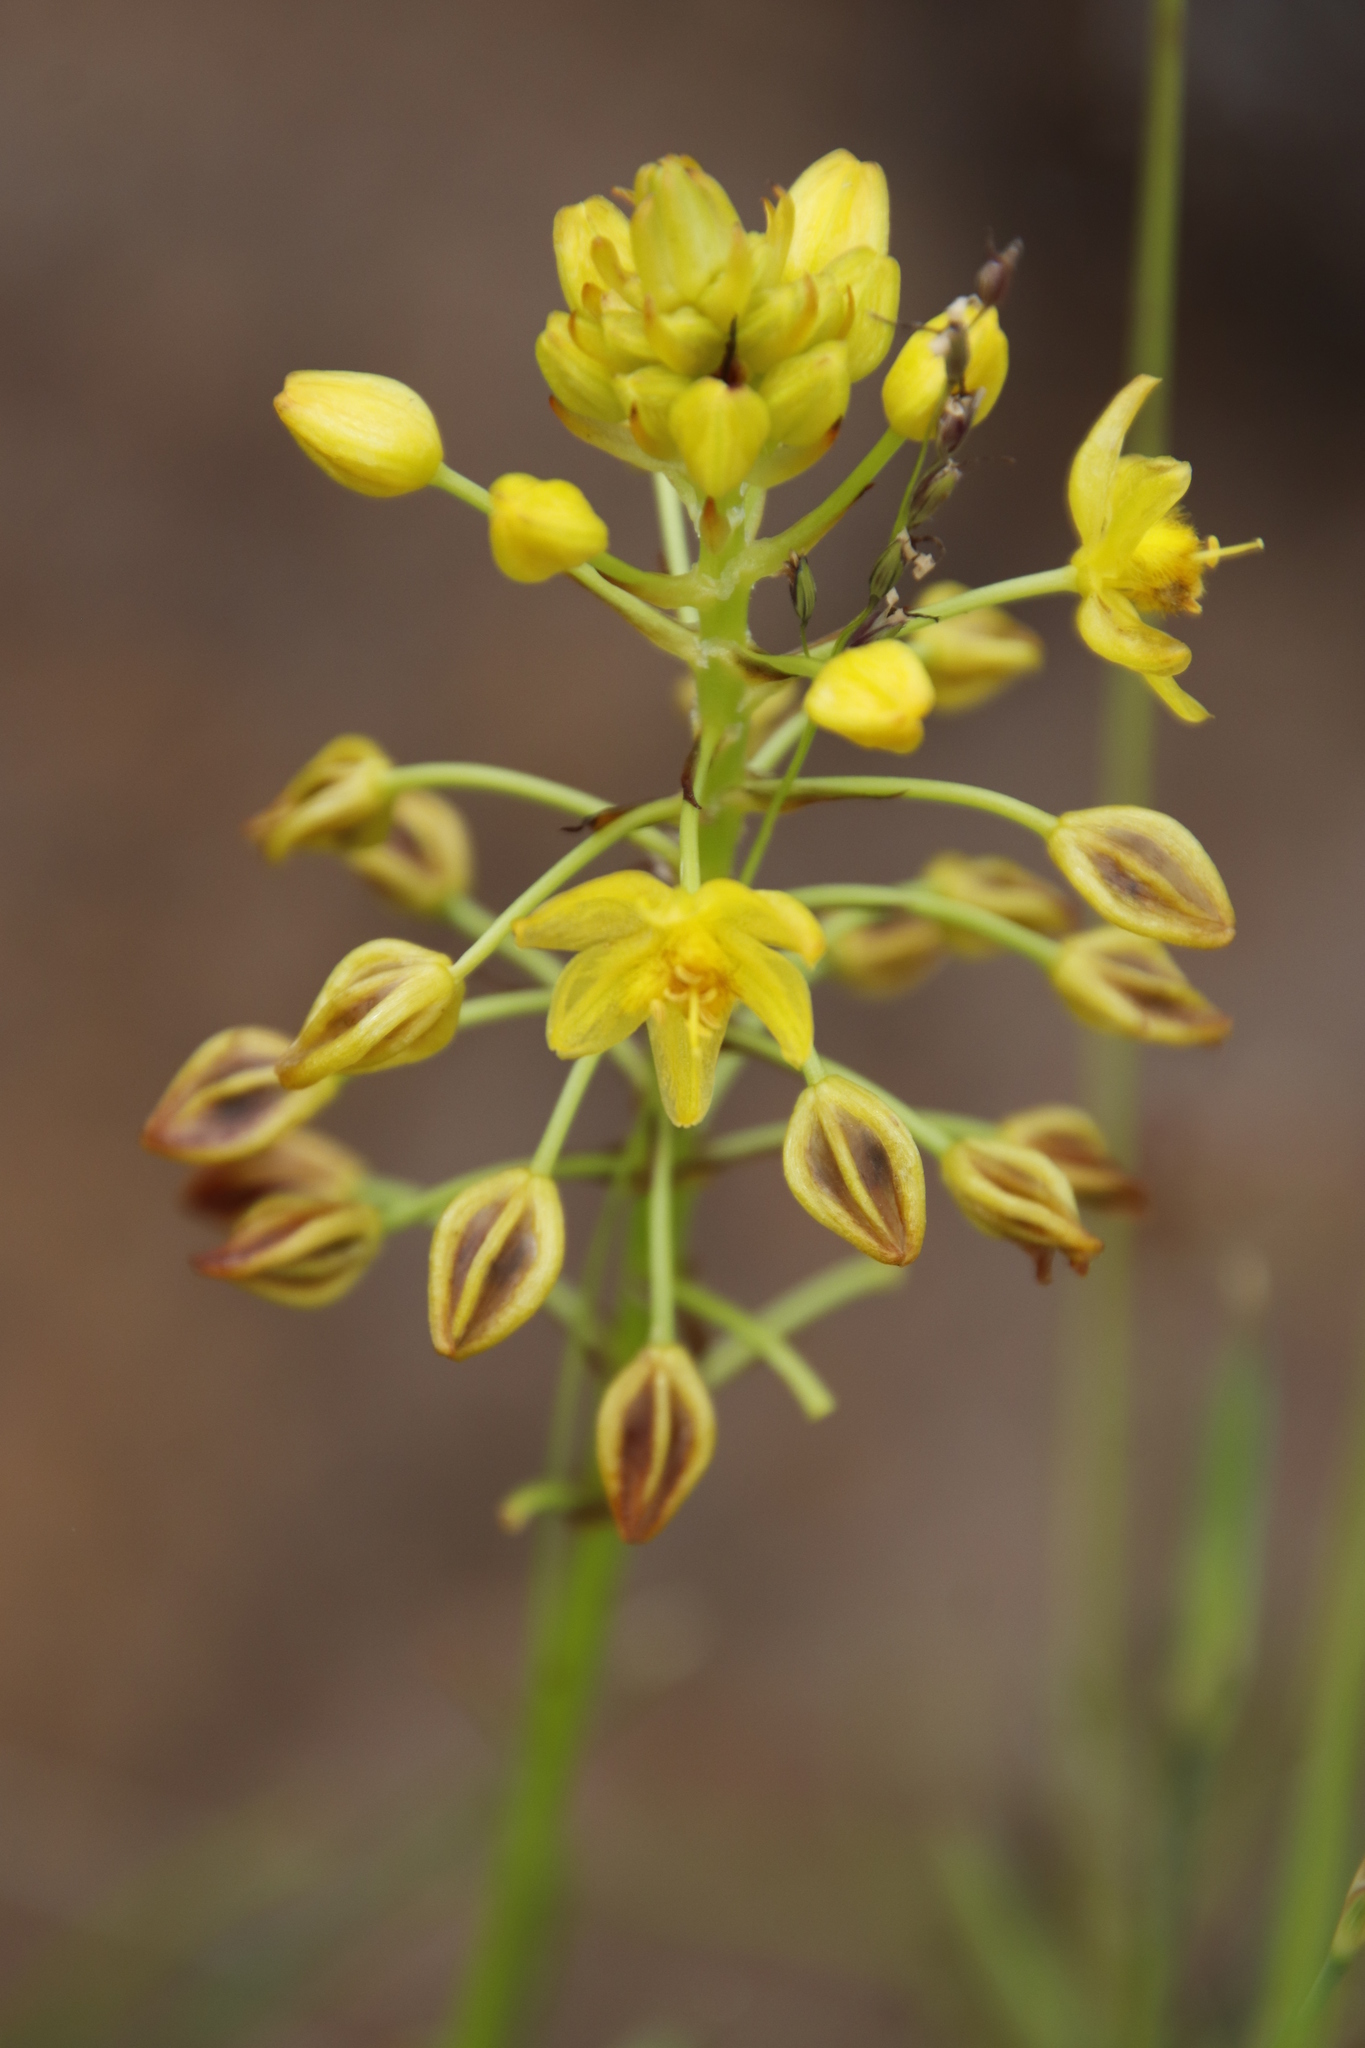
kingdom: Plantae
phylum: Tracheophyta
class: Liliopsida
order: Asparagales
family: Asphodelaceae
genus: Bulbine
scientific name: Bulbine abyssinica
